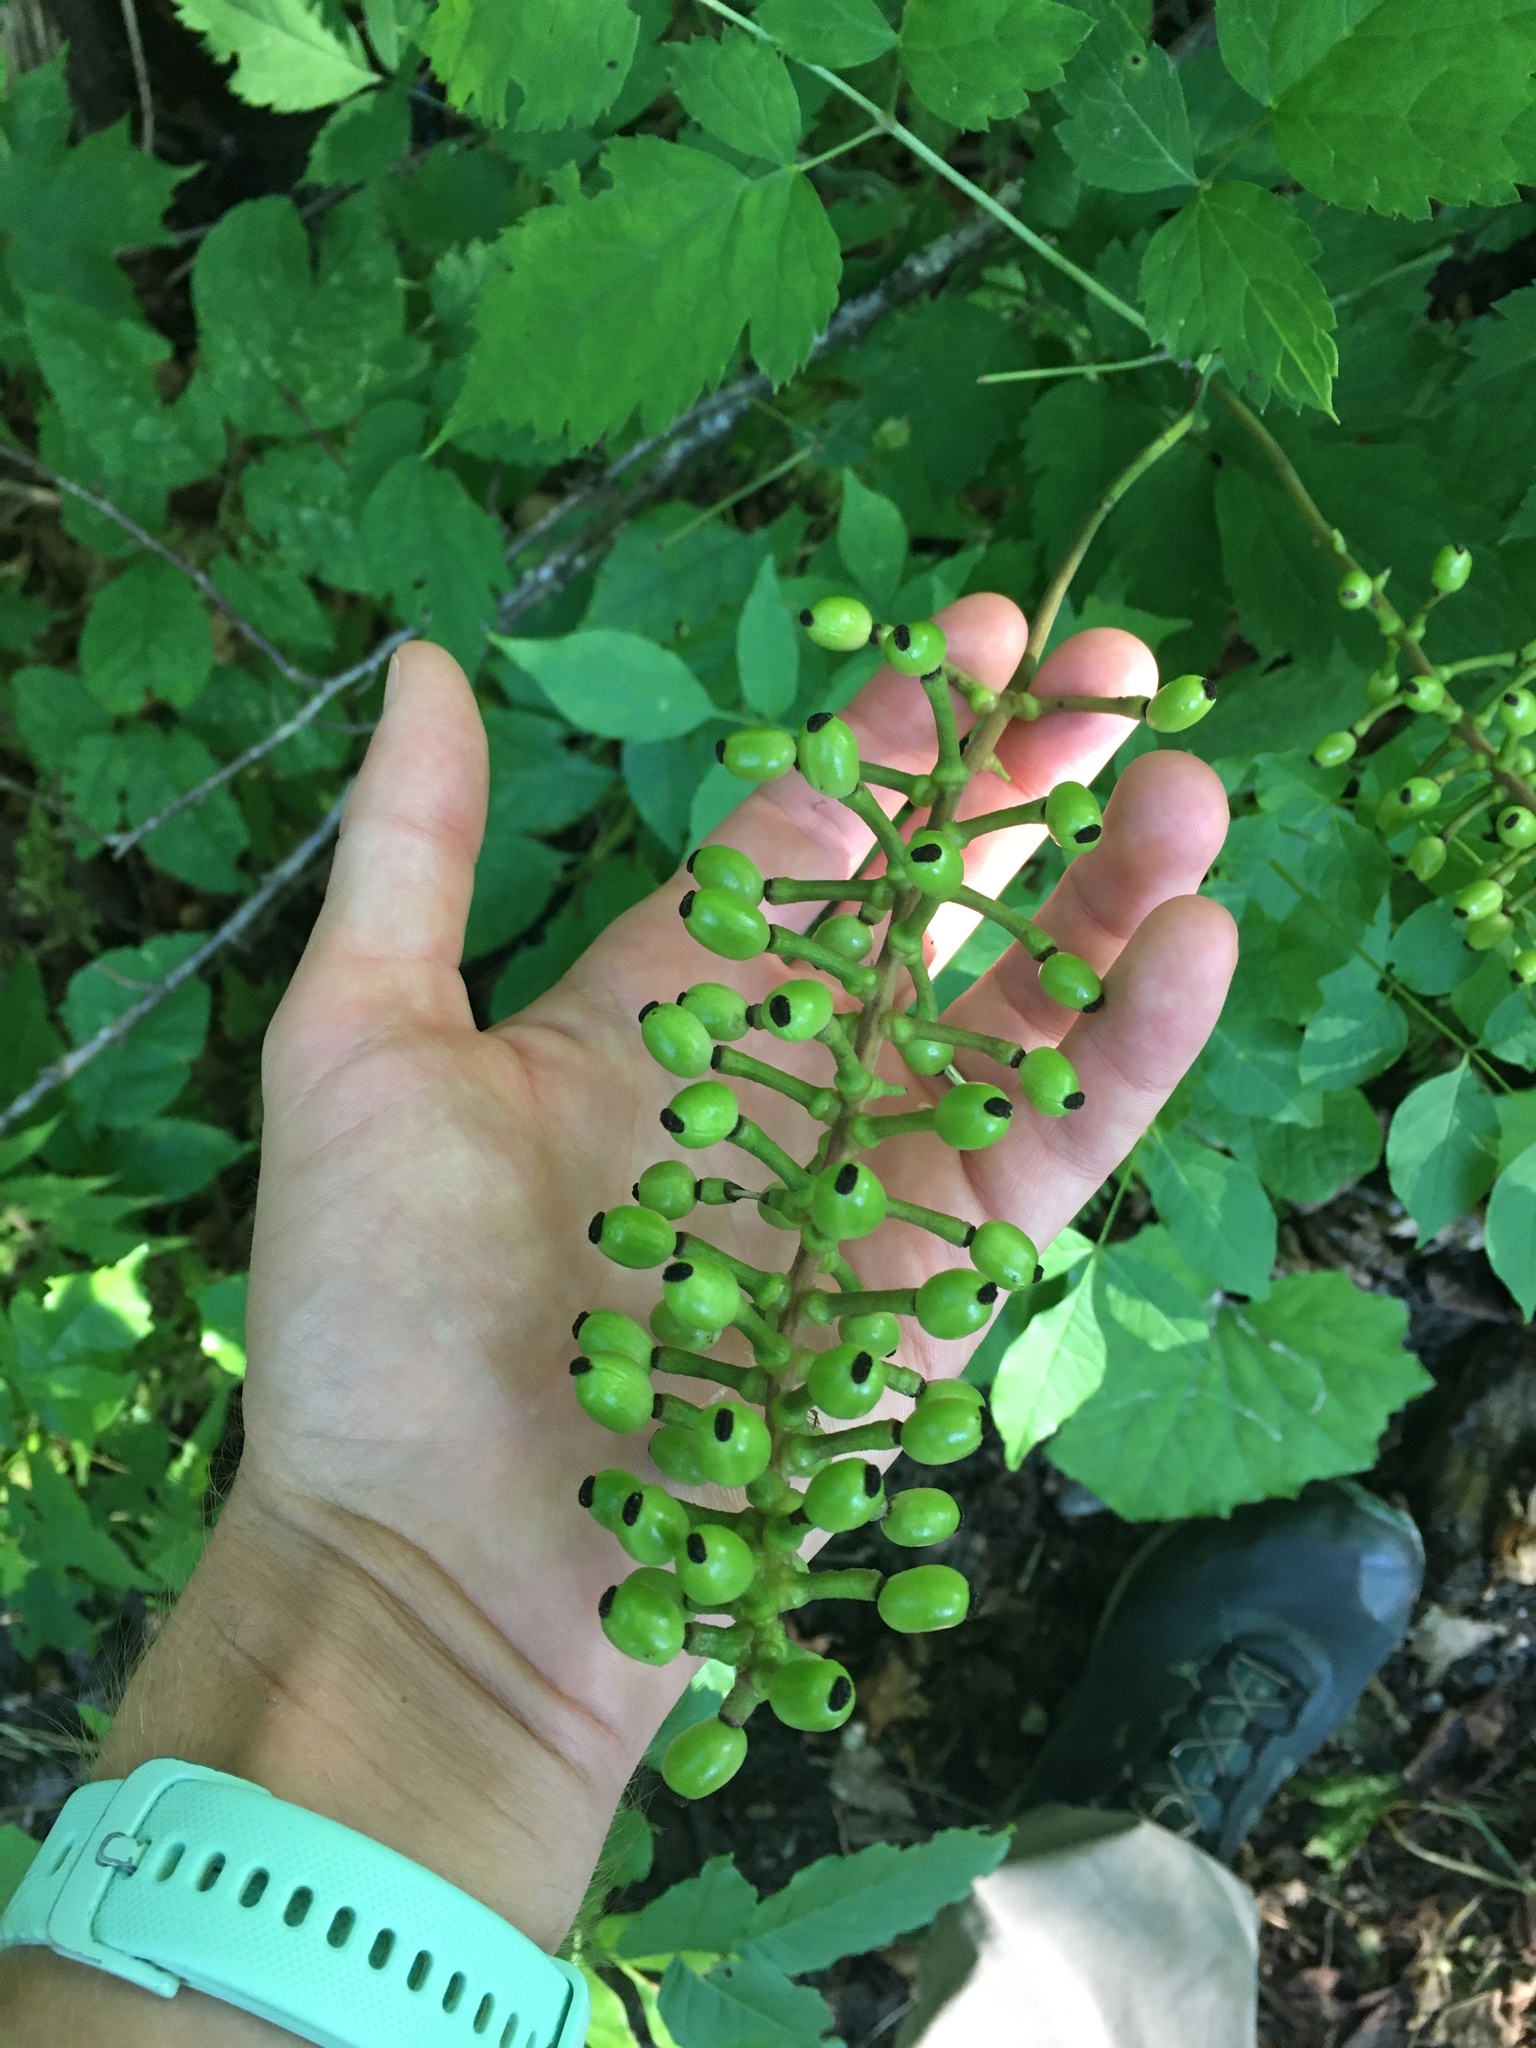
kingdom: Plantae
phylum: Tracheophyta
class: Magnoliopsida
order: Ranunculales
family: Ranunculaceae
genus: Actaea
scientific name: Actaea pachypoda
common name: Doll's-eyes
